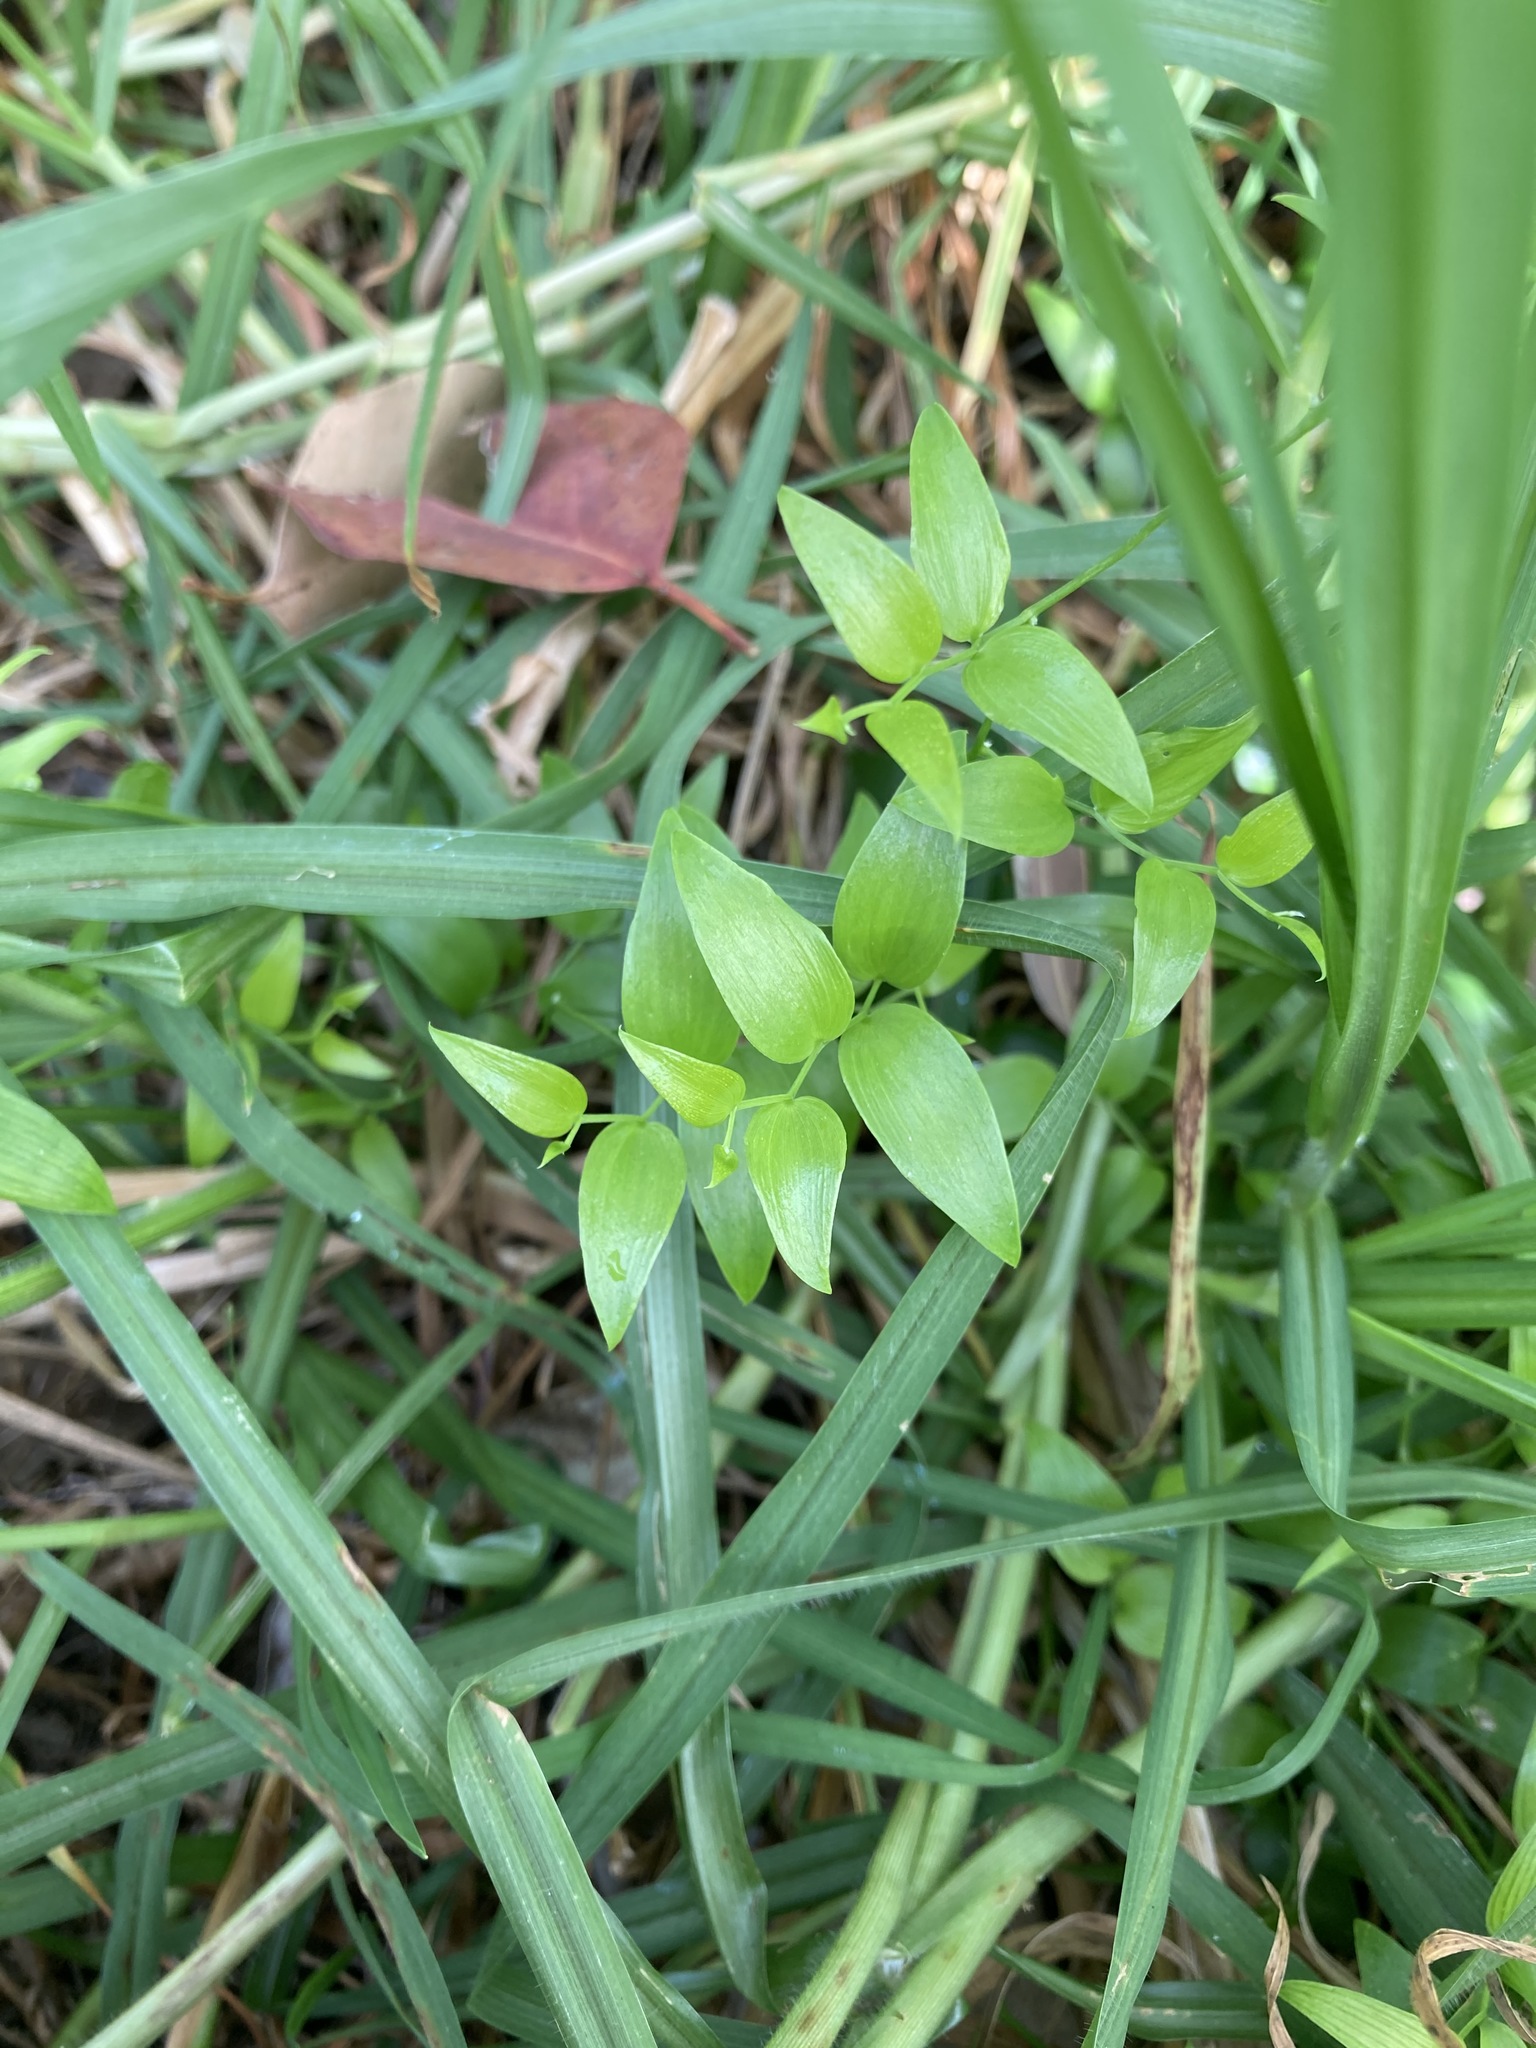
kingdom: Plantae
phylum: Tracheophyta
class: Liliopsida
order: Asparagales
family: Asparagaceae
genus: Asparagus
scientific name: Asparagus asparagoides
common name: African asparagus fern
